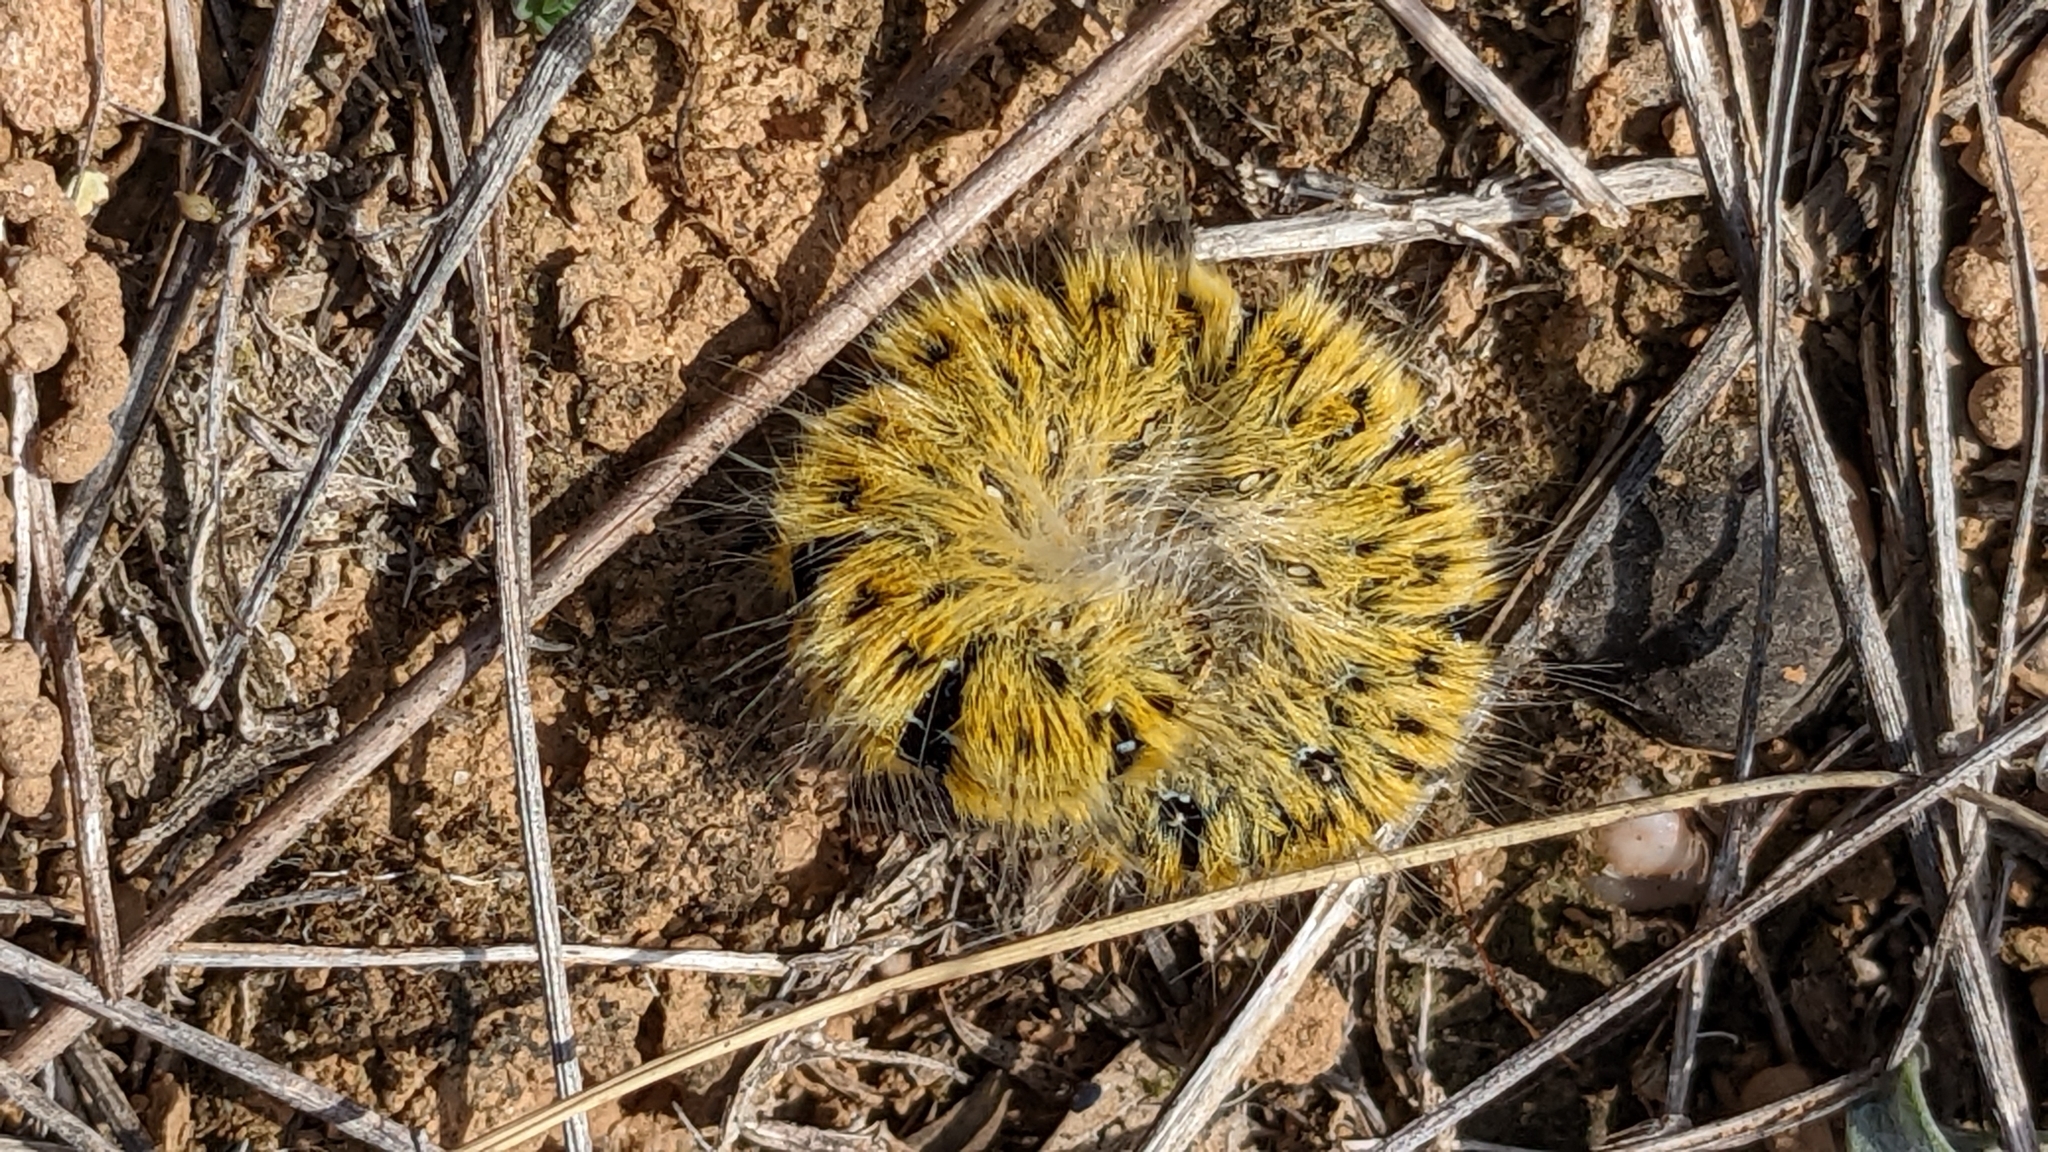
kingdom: Animalia
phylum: Arthropoda
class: Insecta
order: Lepidoptera
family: Lasiocampidae
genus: Lasiocampa
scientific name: Lasiocampa trifolii
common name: Grass eggar
